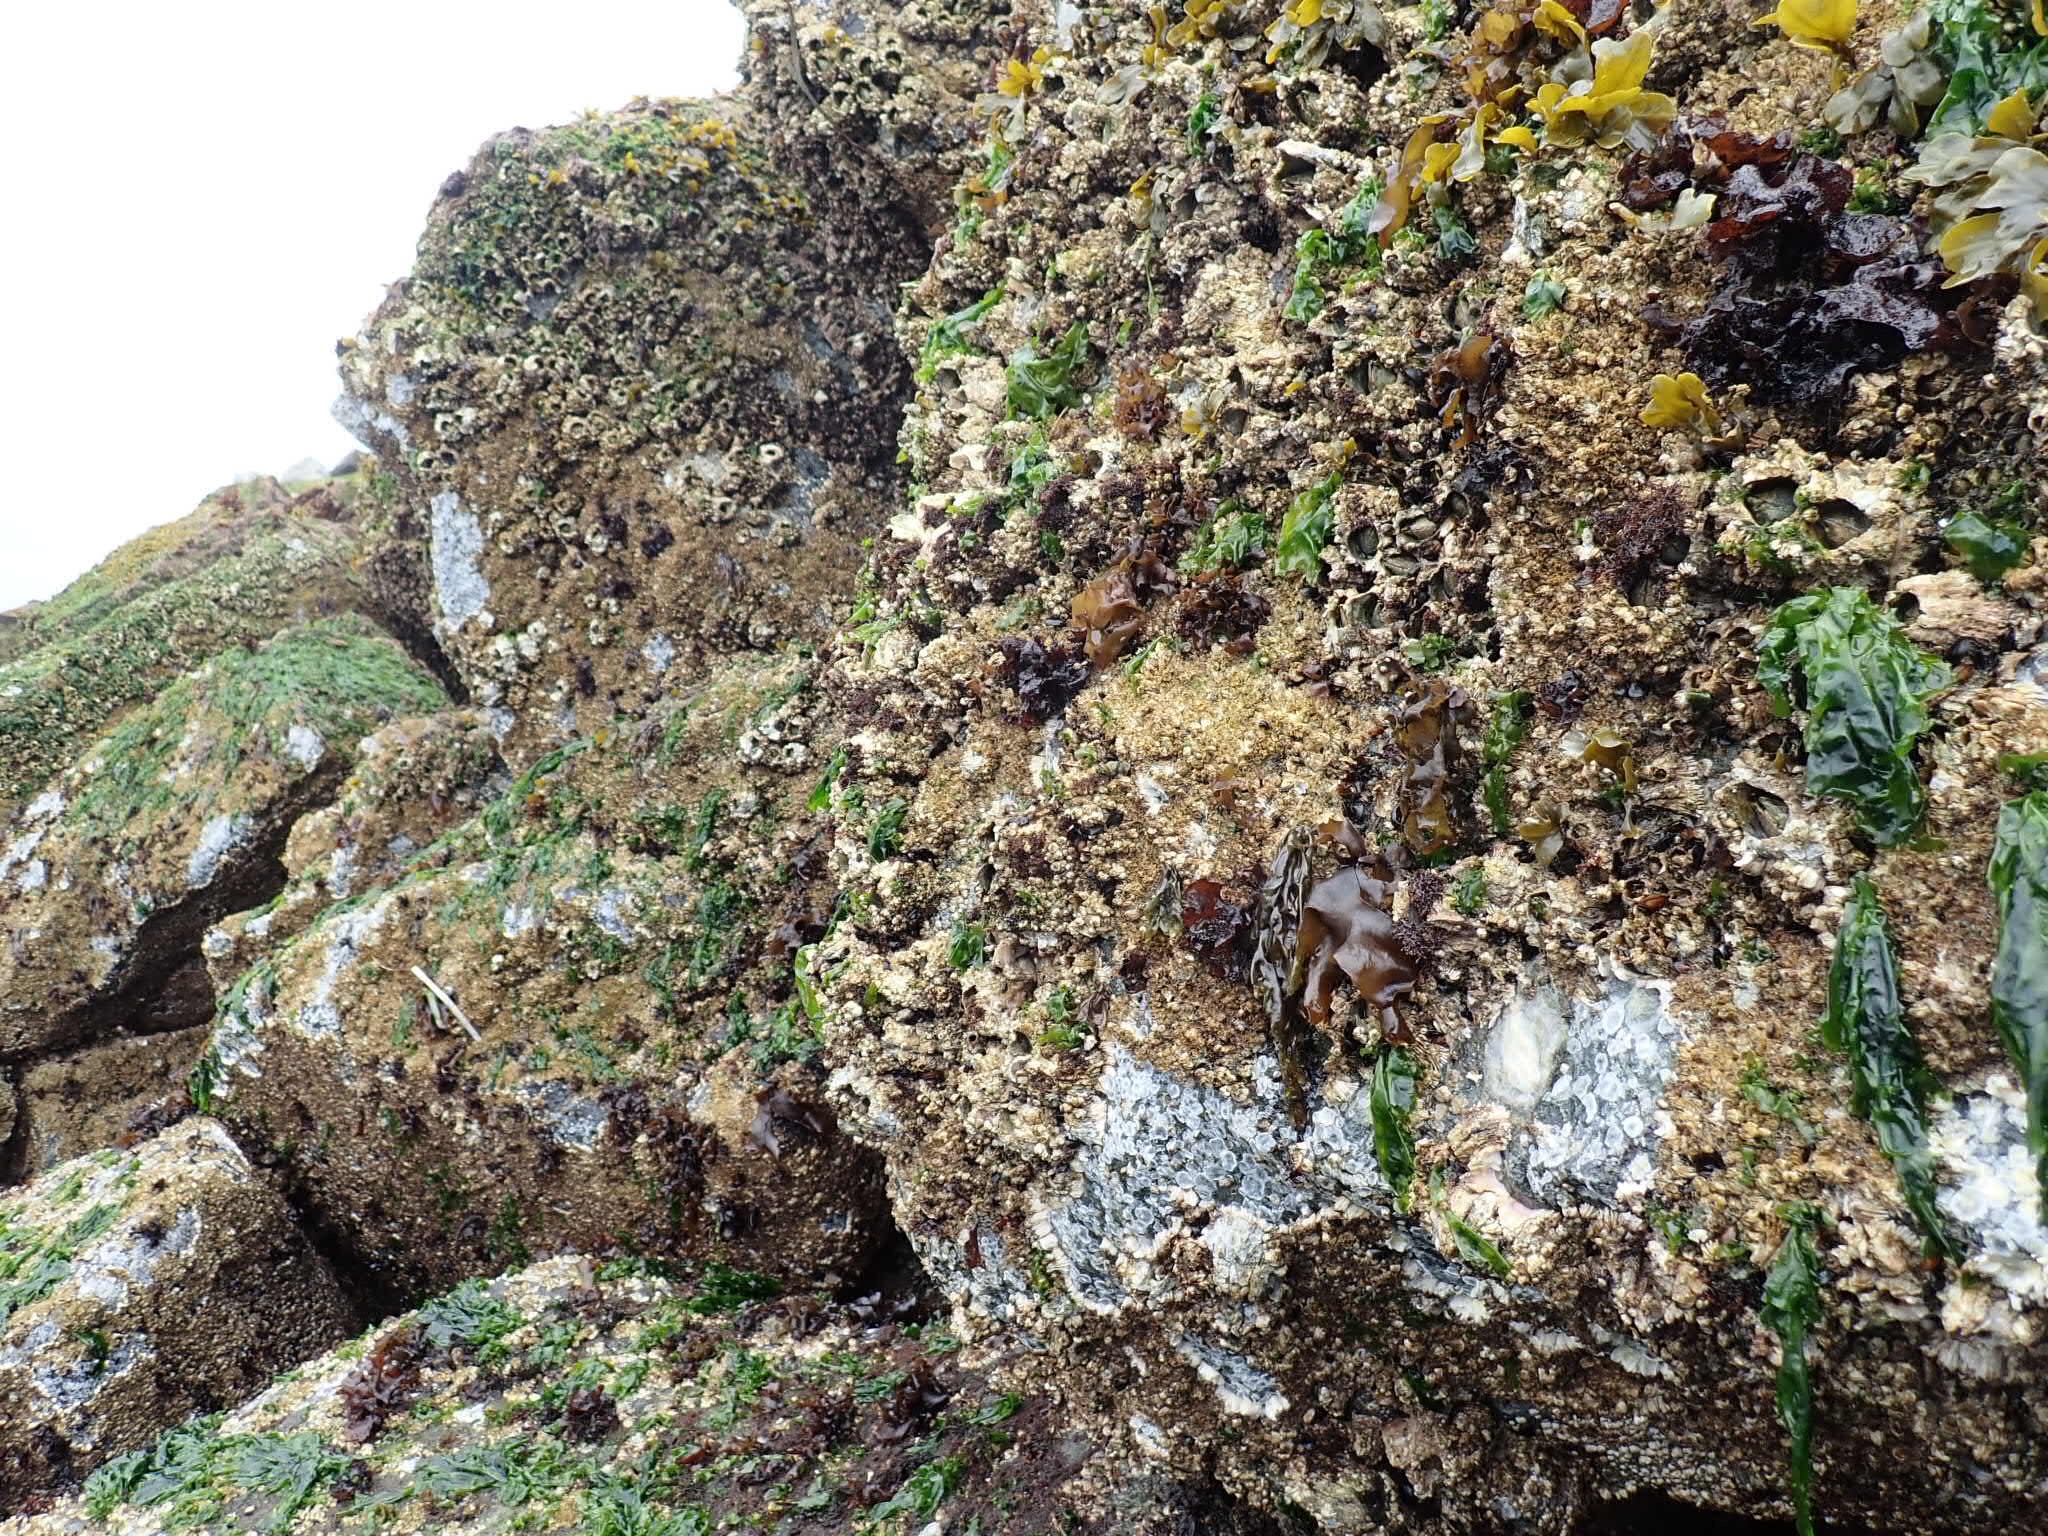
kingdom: Chromista
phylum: Ochrophyta
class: Phaeophyceae
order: Fucales
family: Fucaceae
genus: Fucus
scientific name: Fucus distichus
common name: Rockweed
